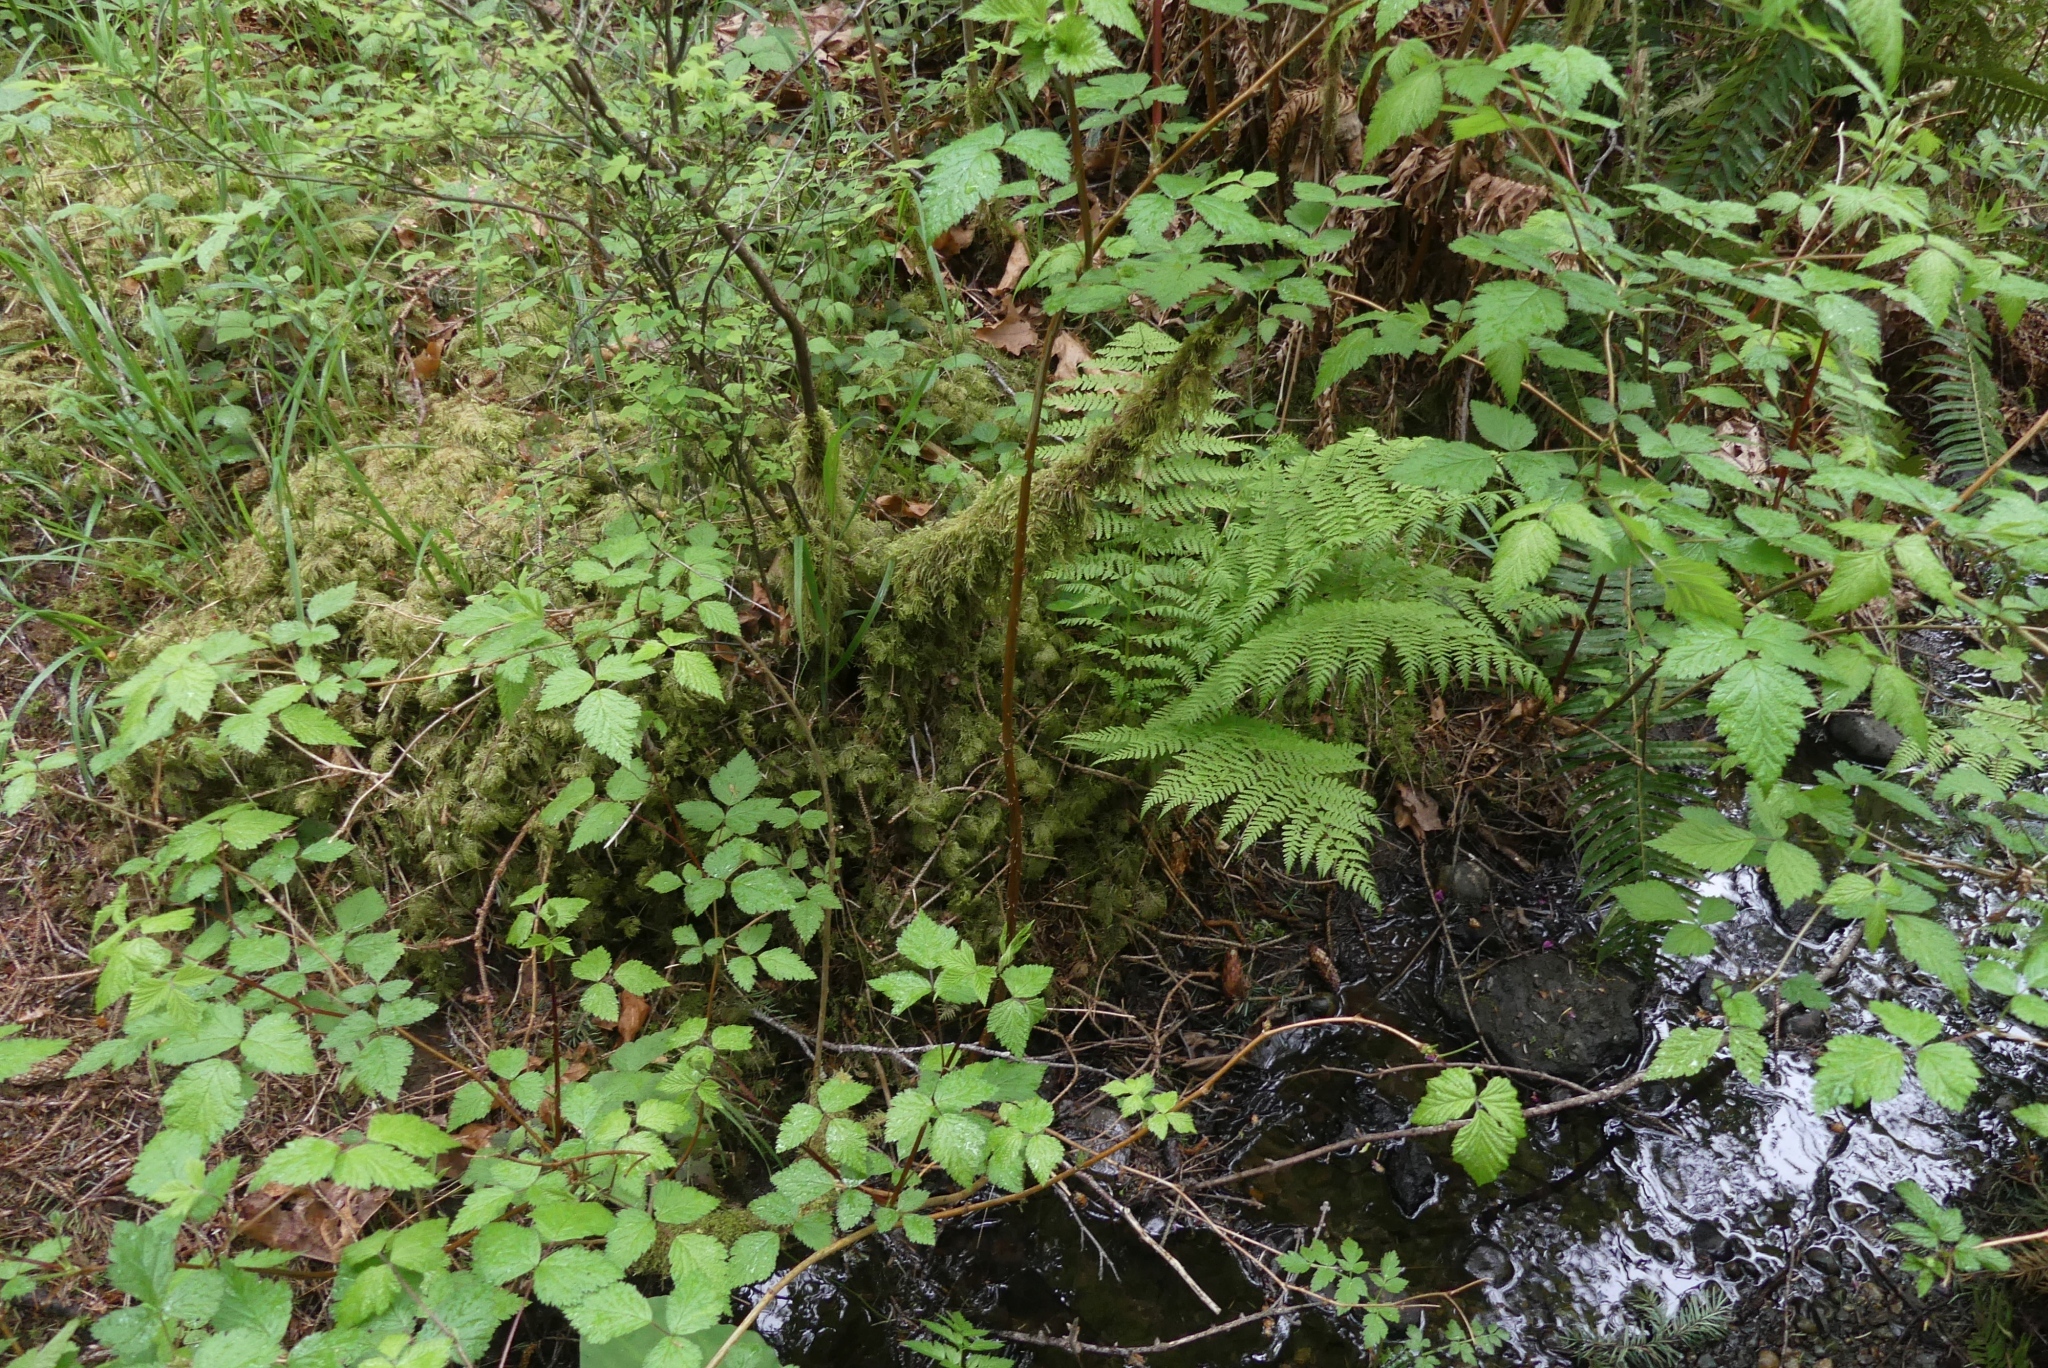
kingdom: Plantae
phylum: Bryophyta
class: Bryopsida
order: Hypnales
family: Hylocomiaceae
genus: Hylocomium
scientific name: Hylocomium splendens
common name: Stairstep moss
